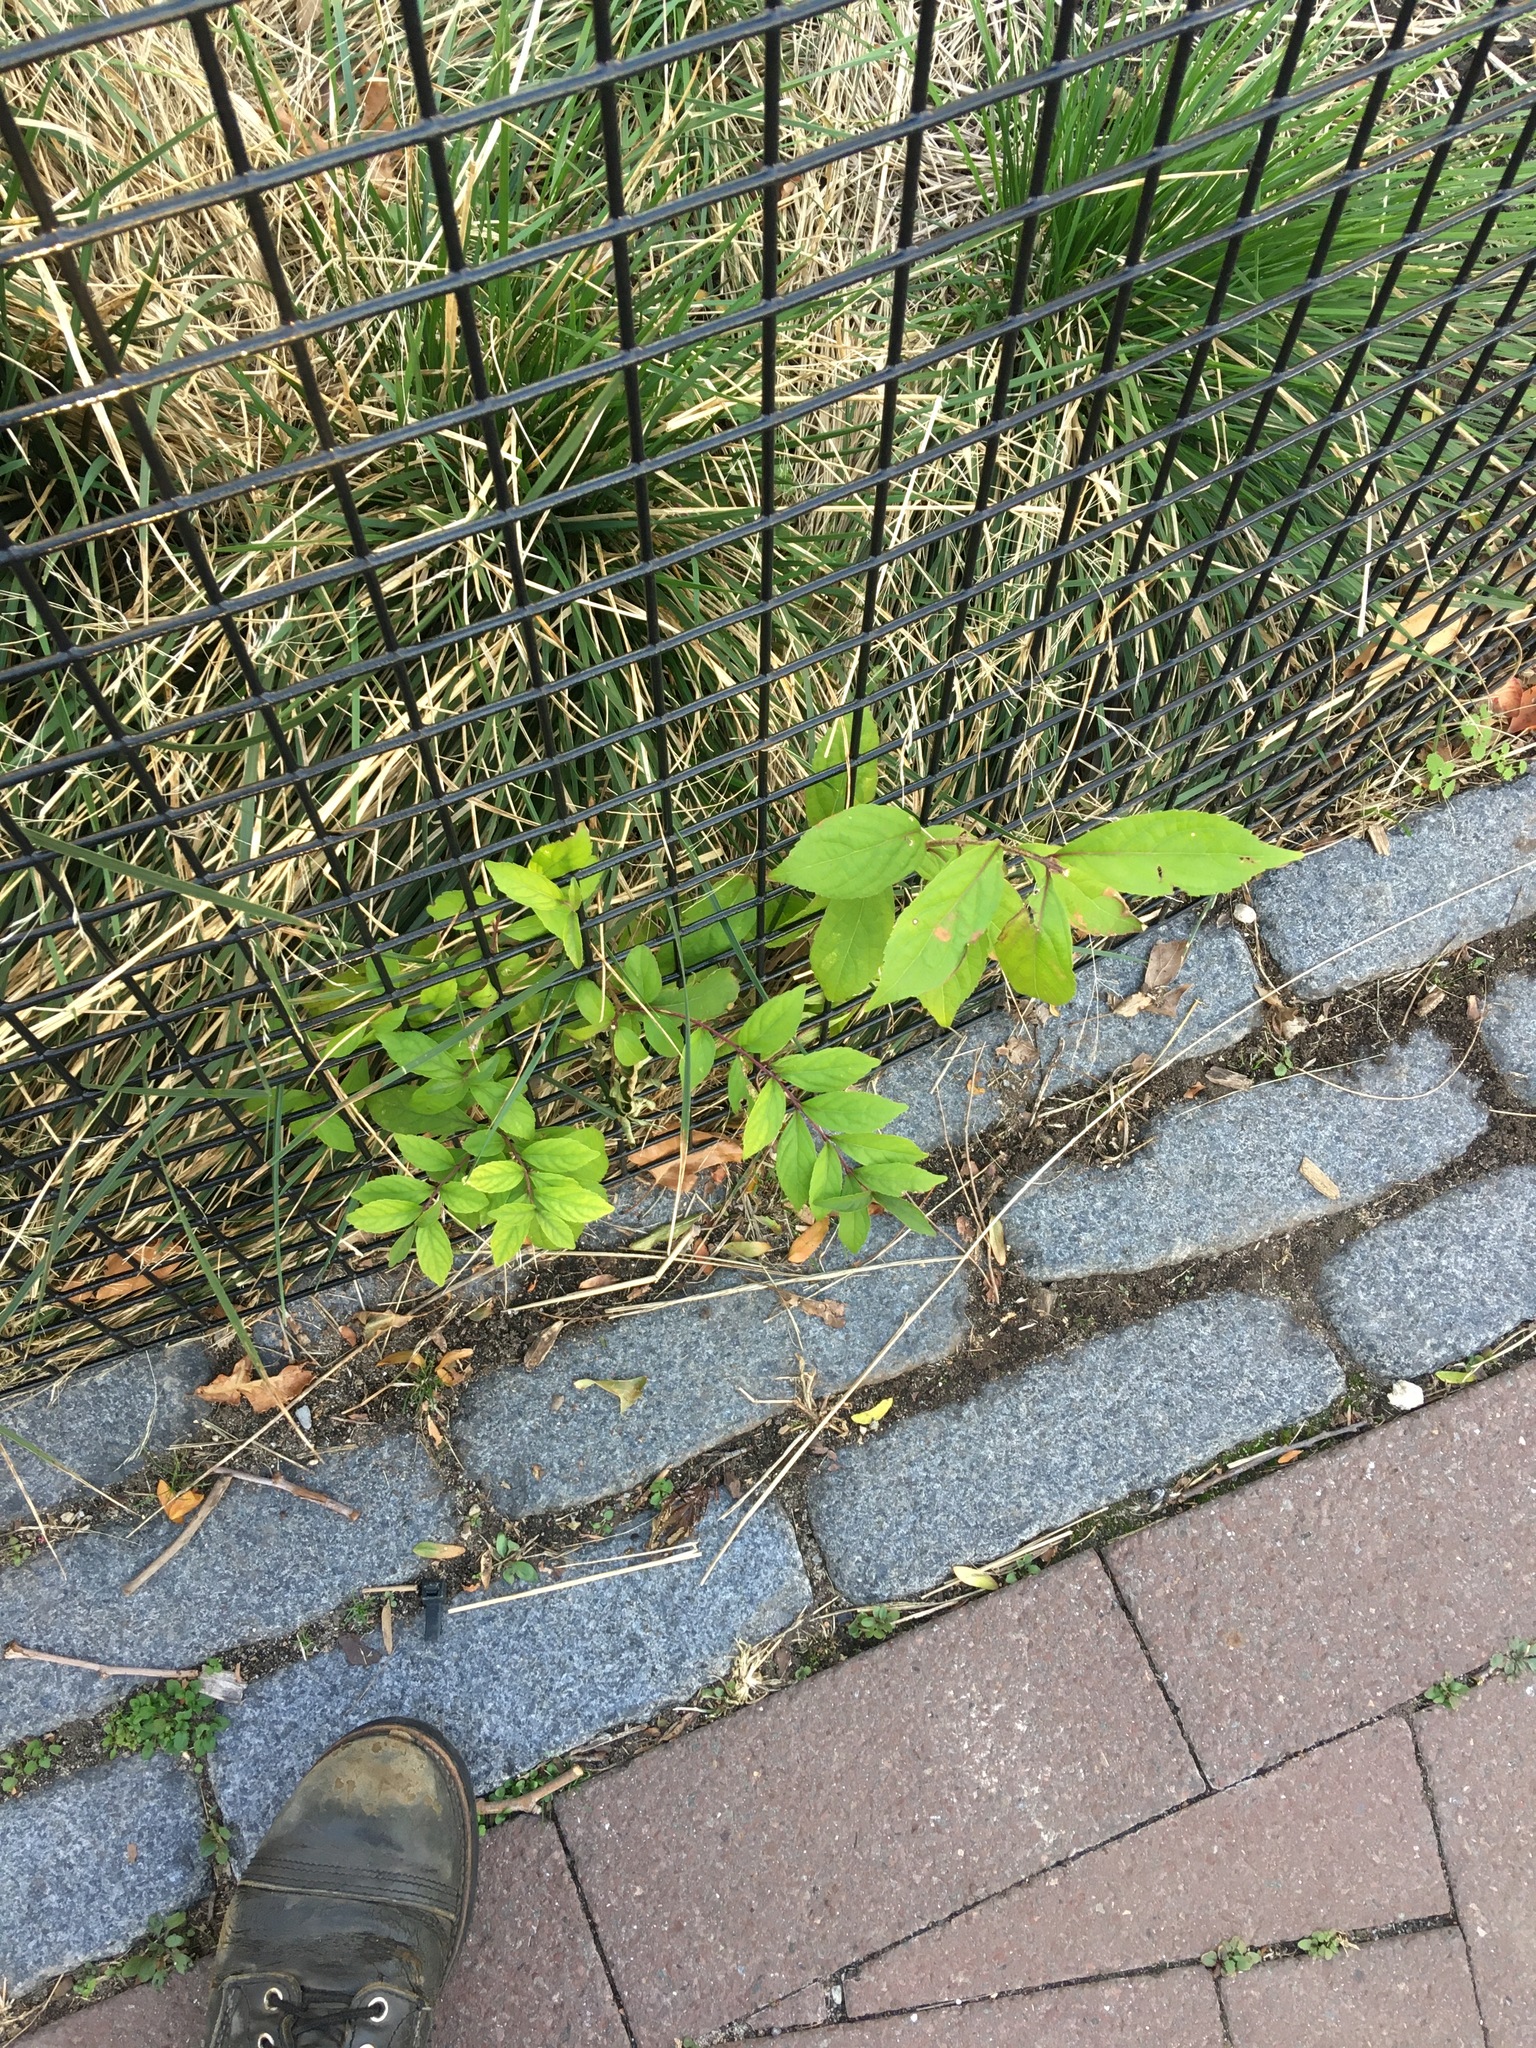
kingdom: Plantae
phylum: Tracheophyta
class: Magnoliopsida
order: Lamiales
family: Lamiaceae
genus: Callicarpa
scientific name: Callicarpa dichotoma
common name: Purple beauty-berry
